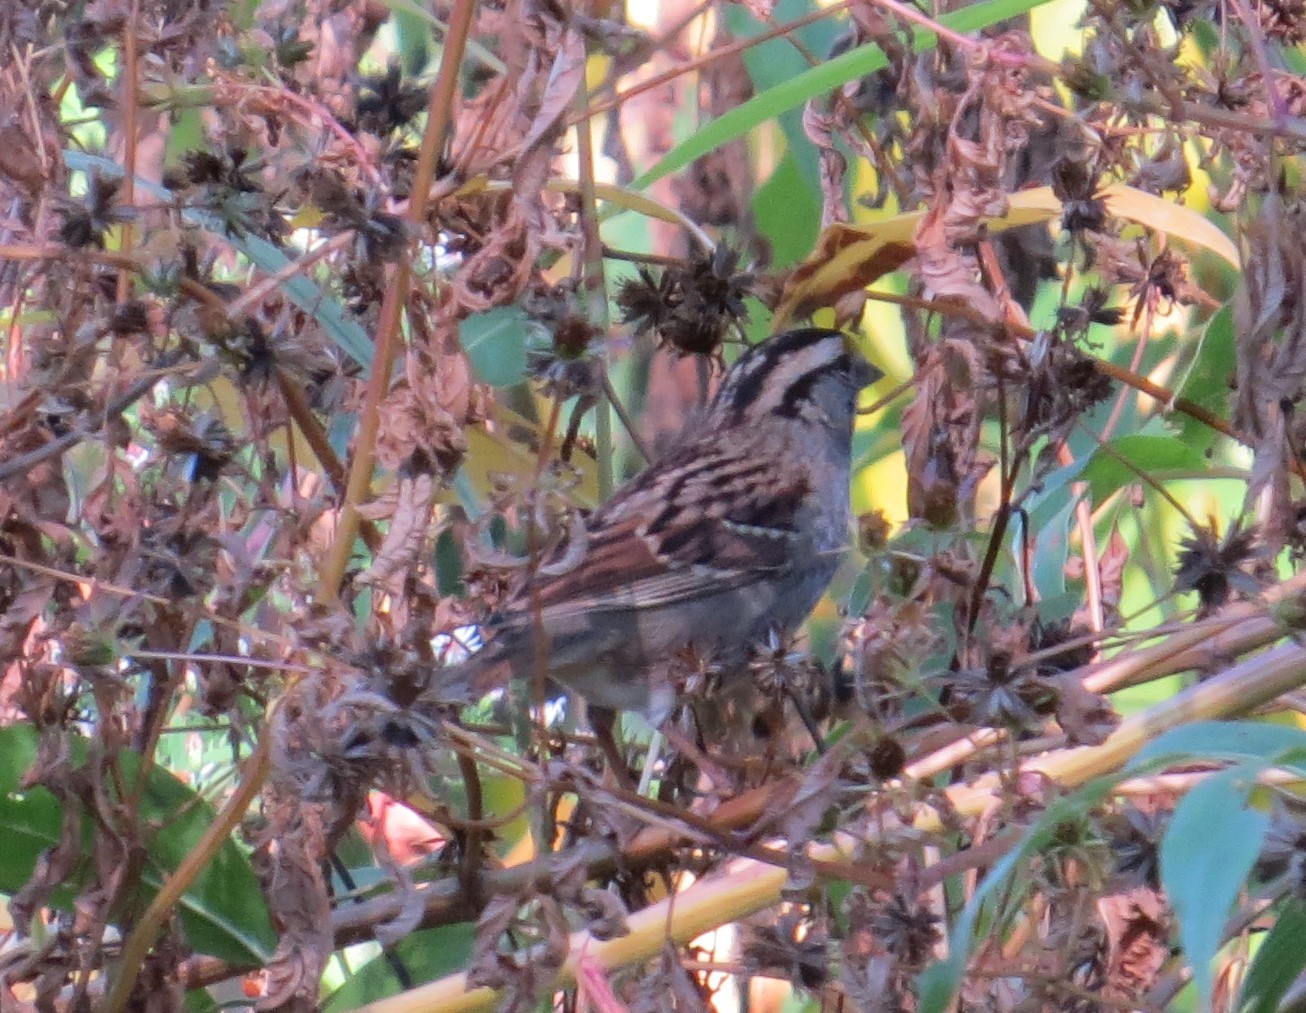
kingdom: Animalia
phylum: Chordata
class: Aves
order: Passeriformes
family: Passerellidae
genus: Zonotrichia
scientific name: Zonotrichia albicollis
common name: White-throated sparrow
